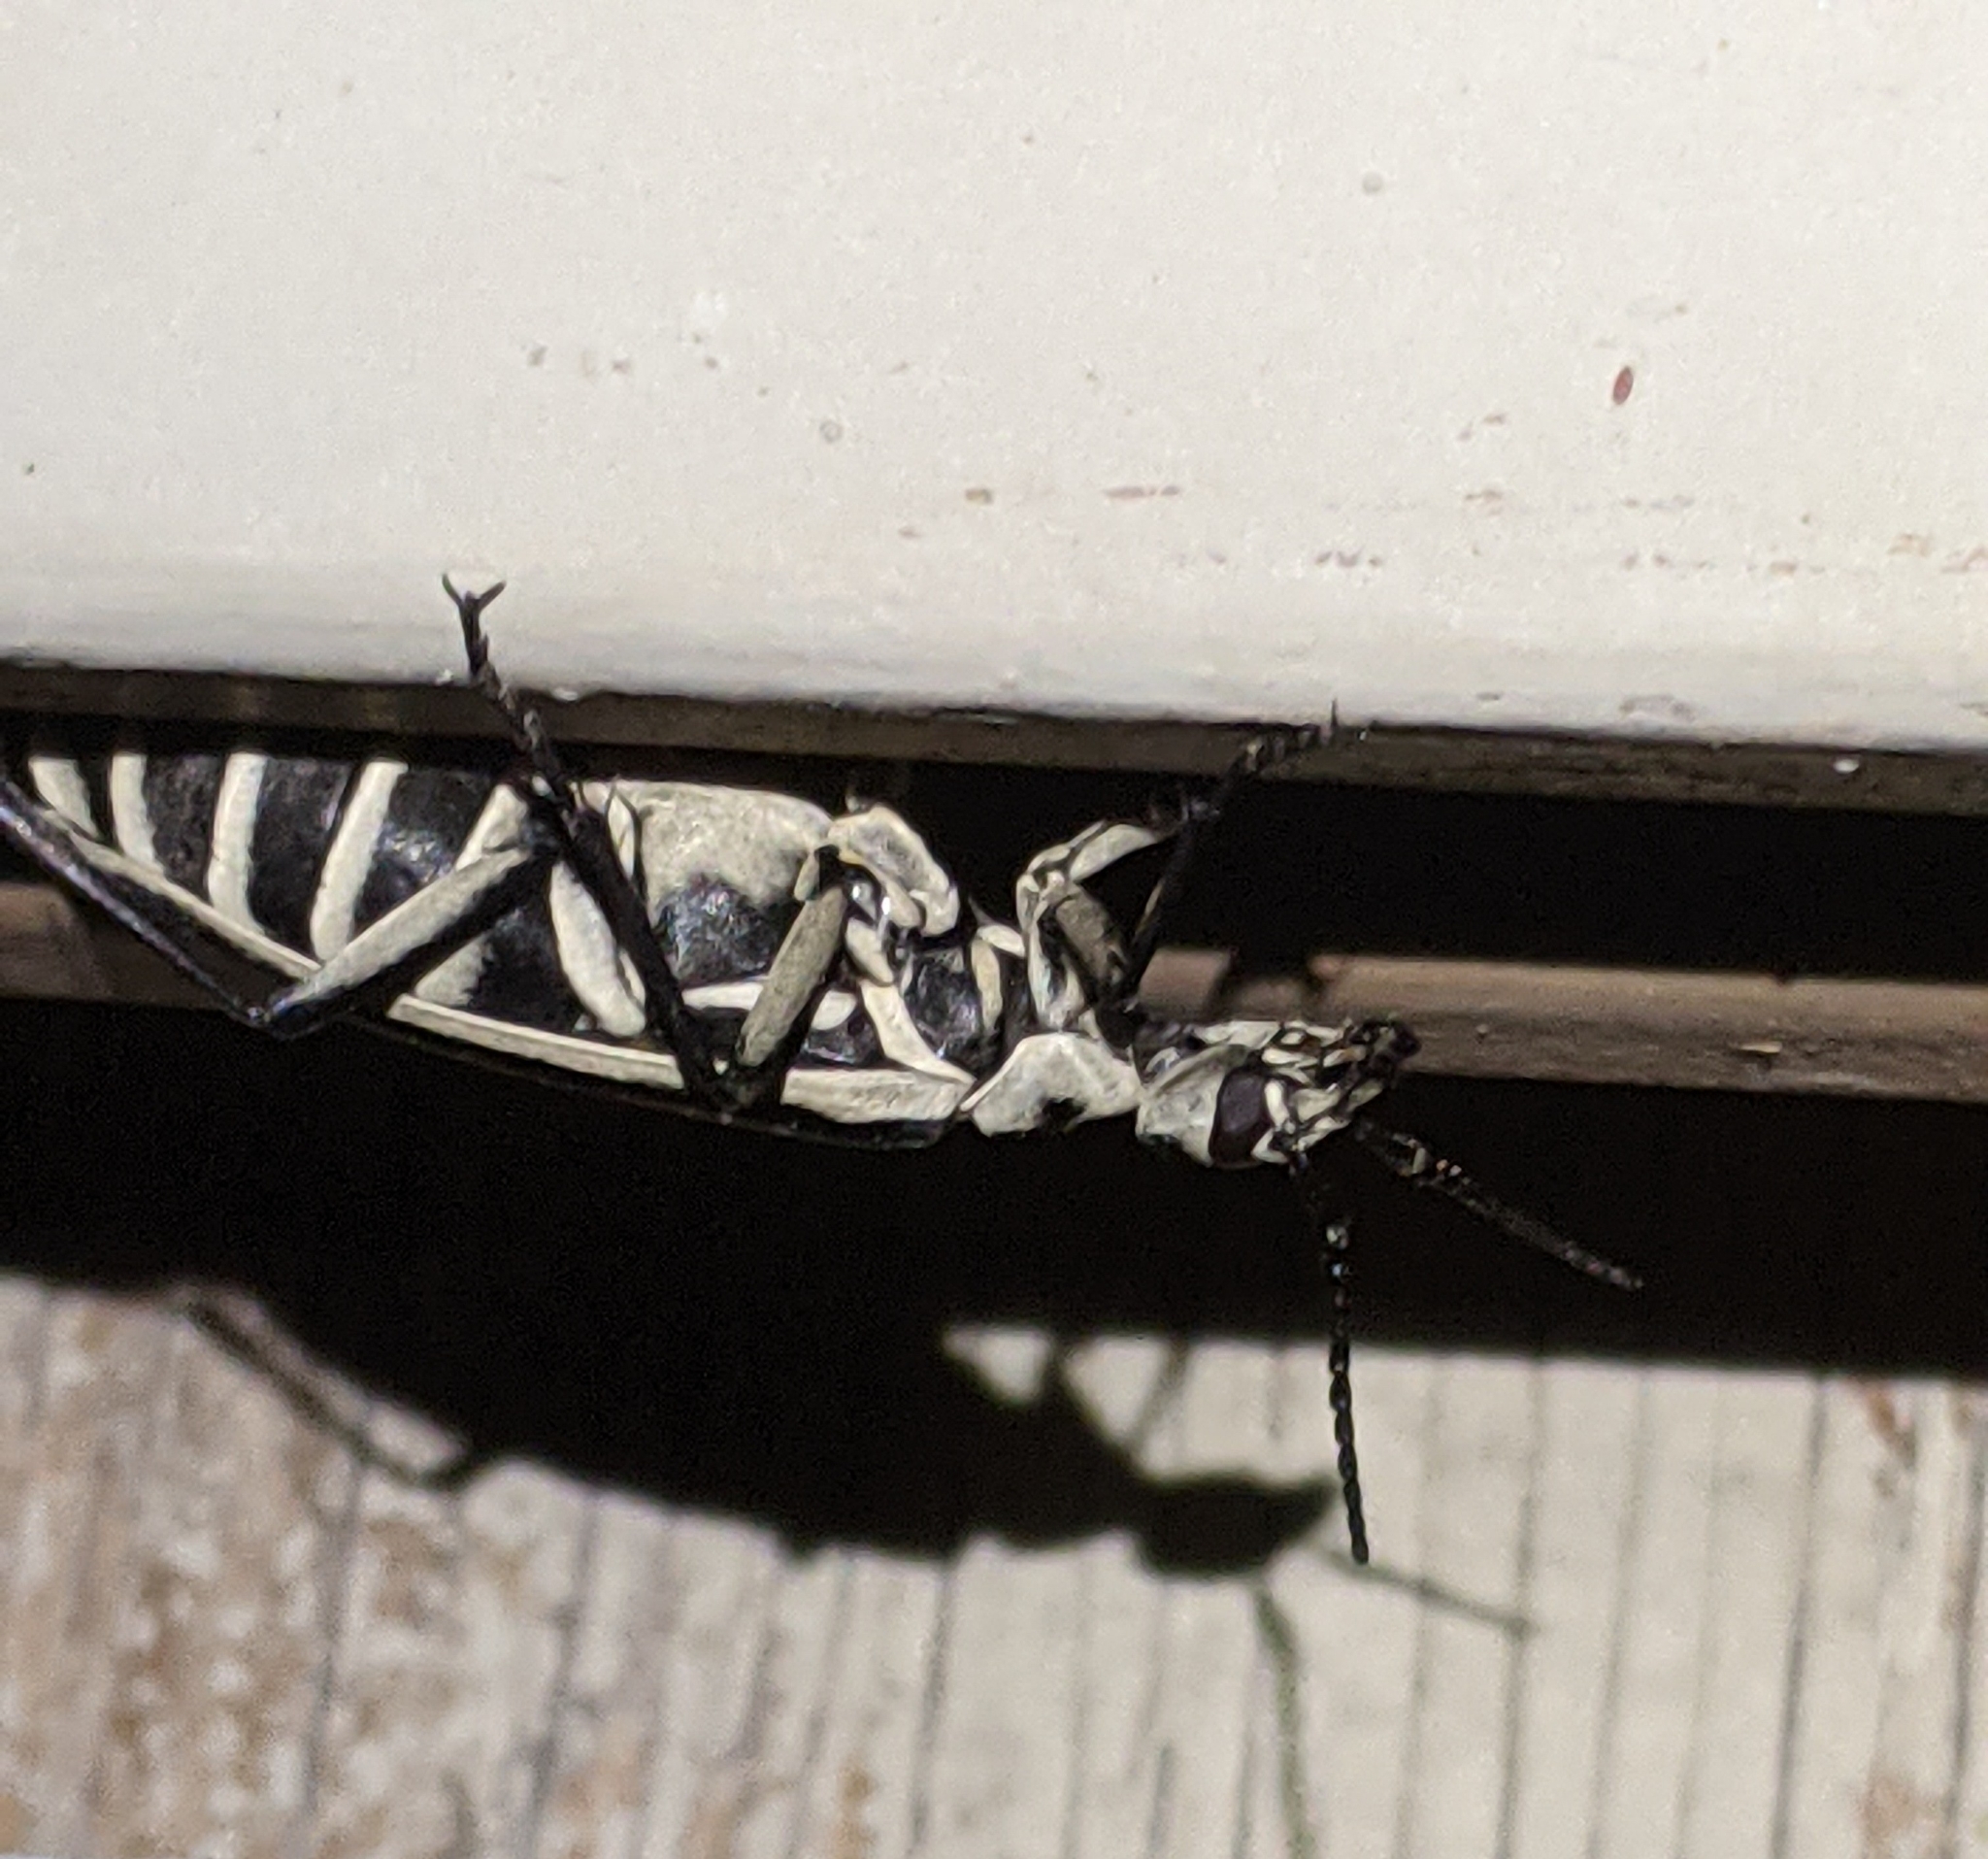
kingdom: Animalia
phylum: Arthropoda
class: Insecta
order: Coleoptera
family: Meloidae
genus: Epicauta
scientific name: Epicauta atrivittata
